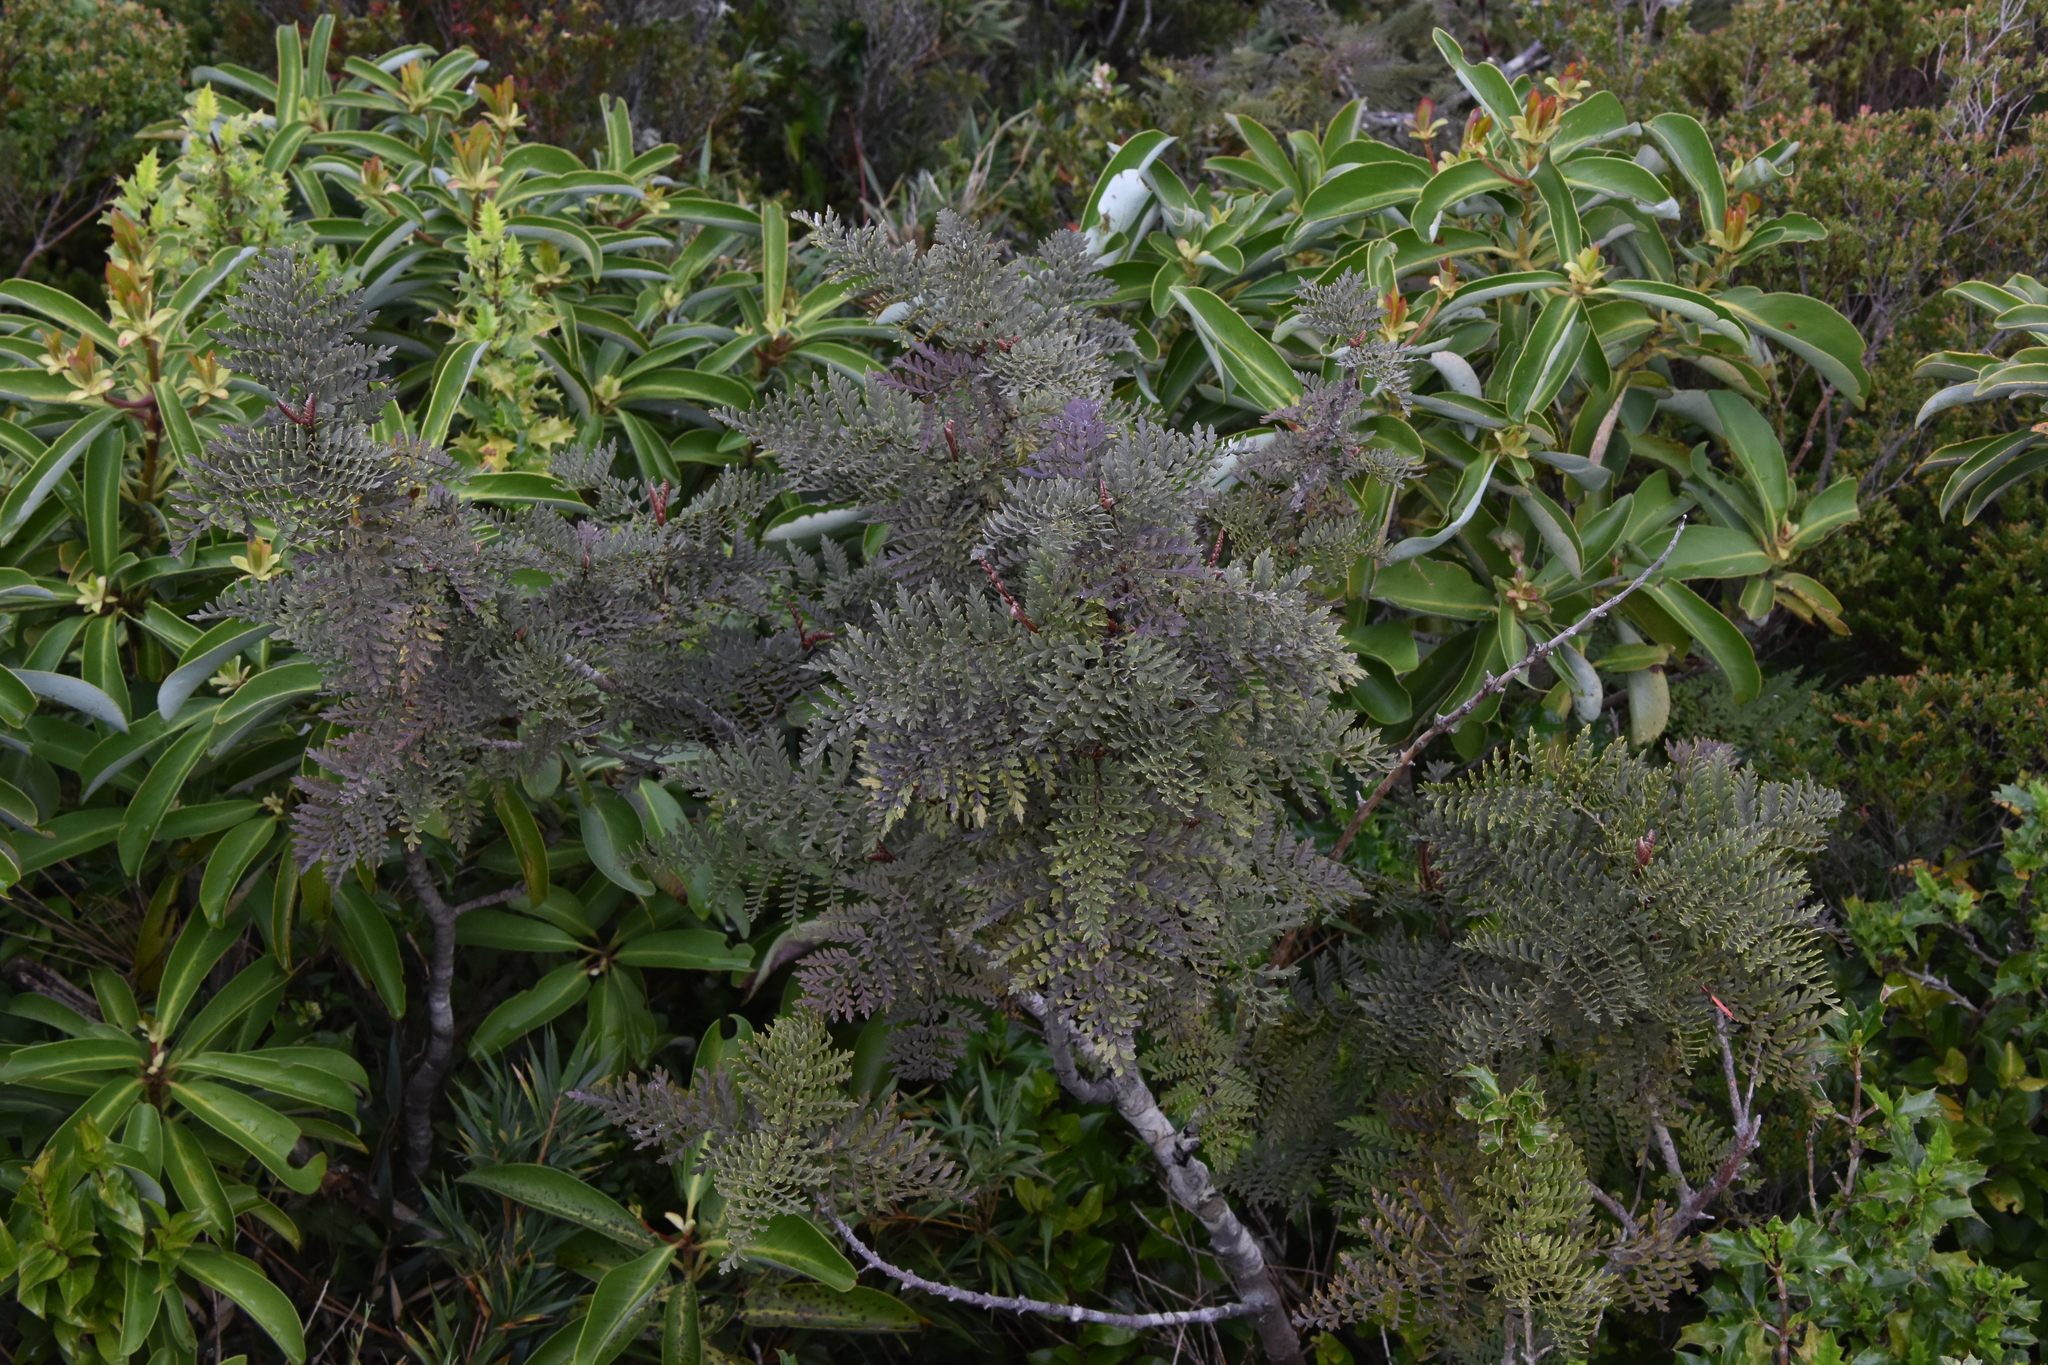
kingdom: Plantae
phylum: Tracheophyta
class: Magnoliopsida
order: Proteales
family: Proteaceae
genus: Lomatia
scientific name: Lomatia ferruginea
